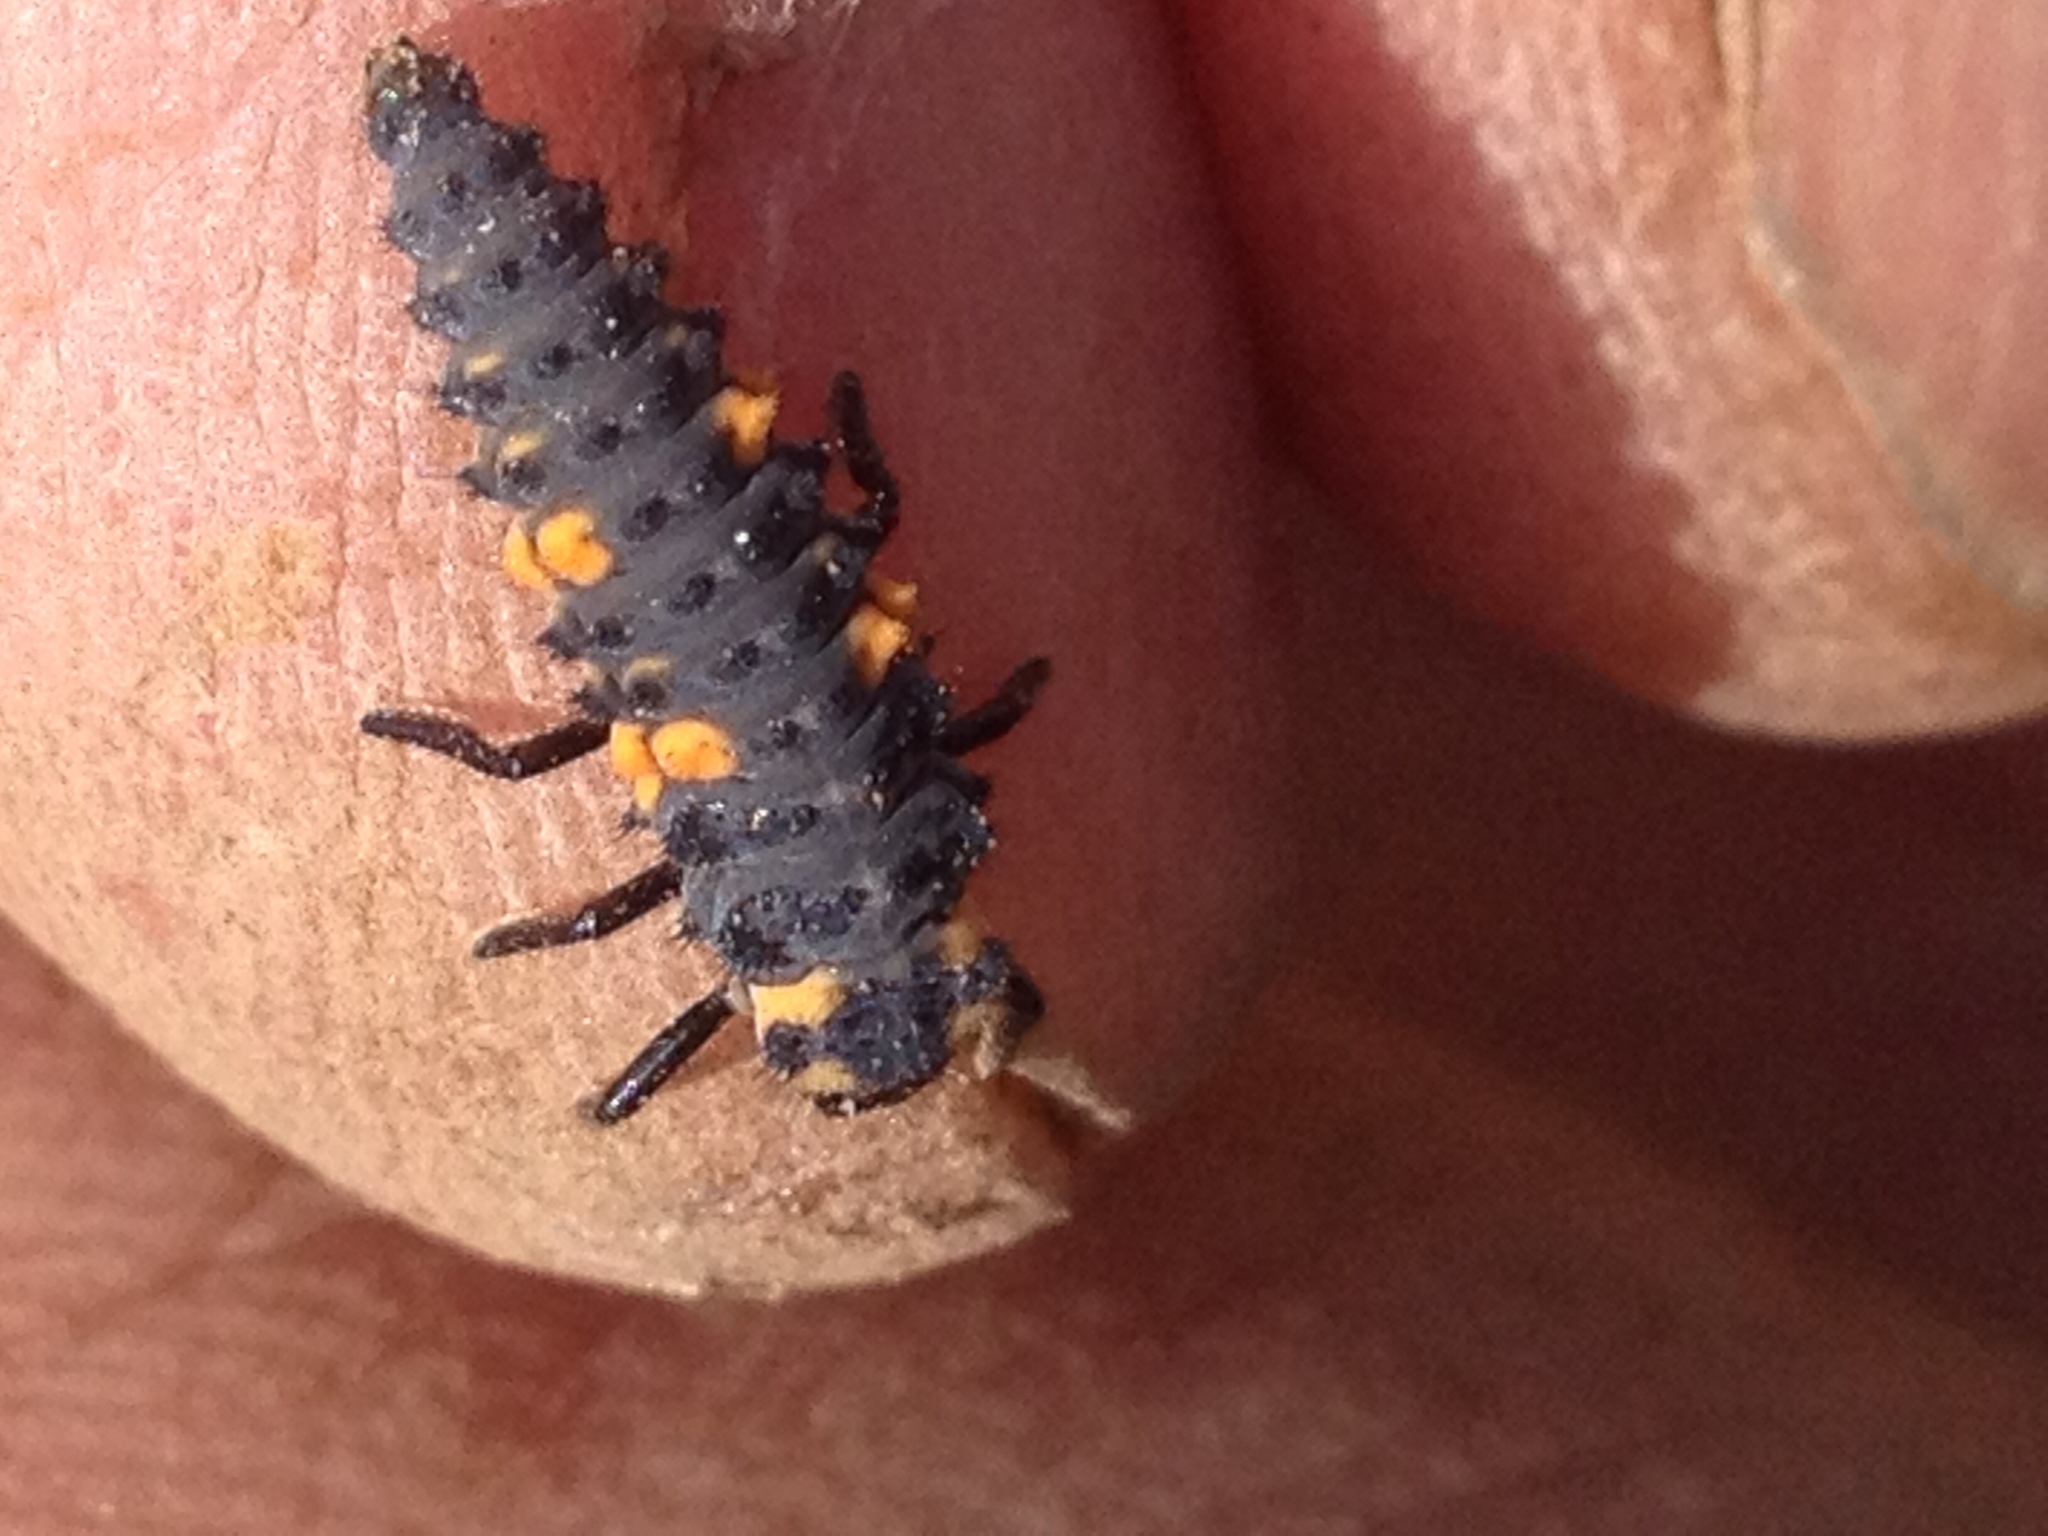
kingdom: Animalia
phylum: Arthropoda
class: Insecta
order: Coleoptera
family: Coccinellidae
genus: Coccinella
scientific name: Coccinella septempunctata
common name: Sevenspotted lady beetle
